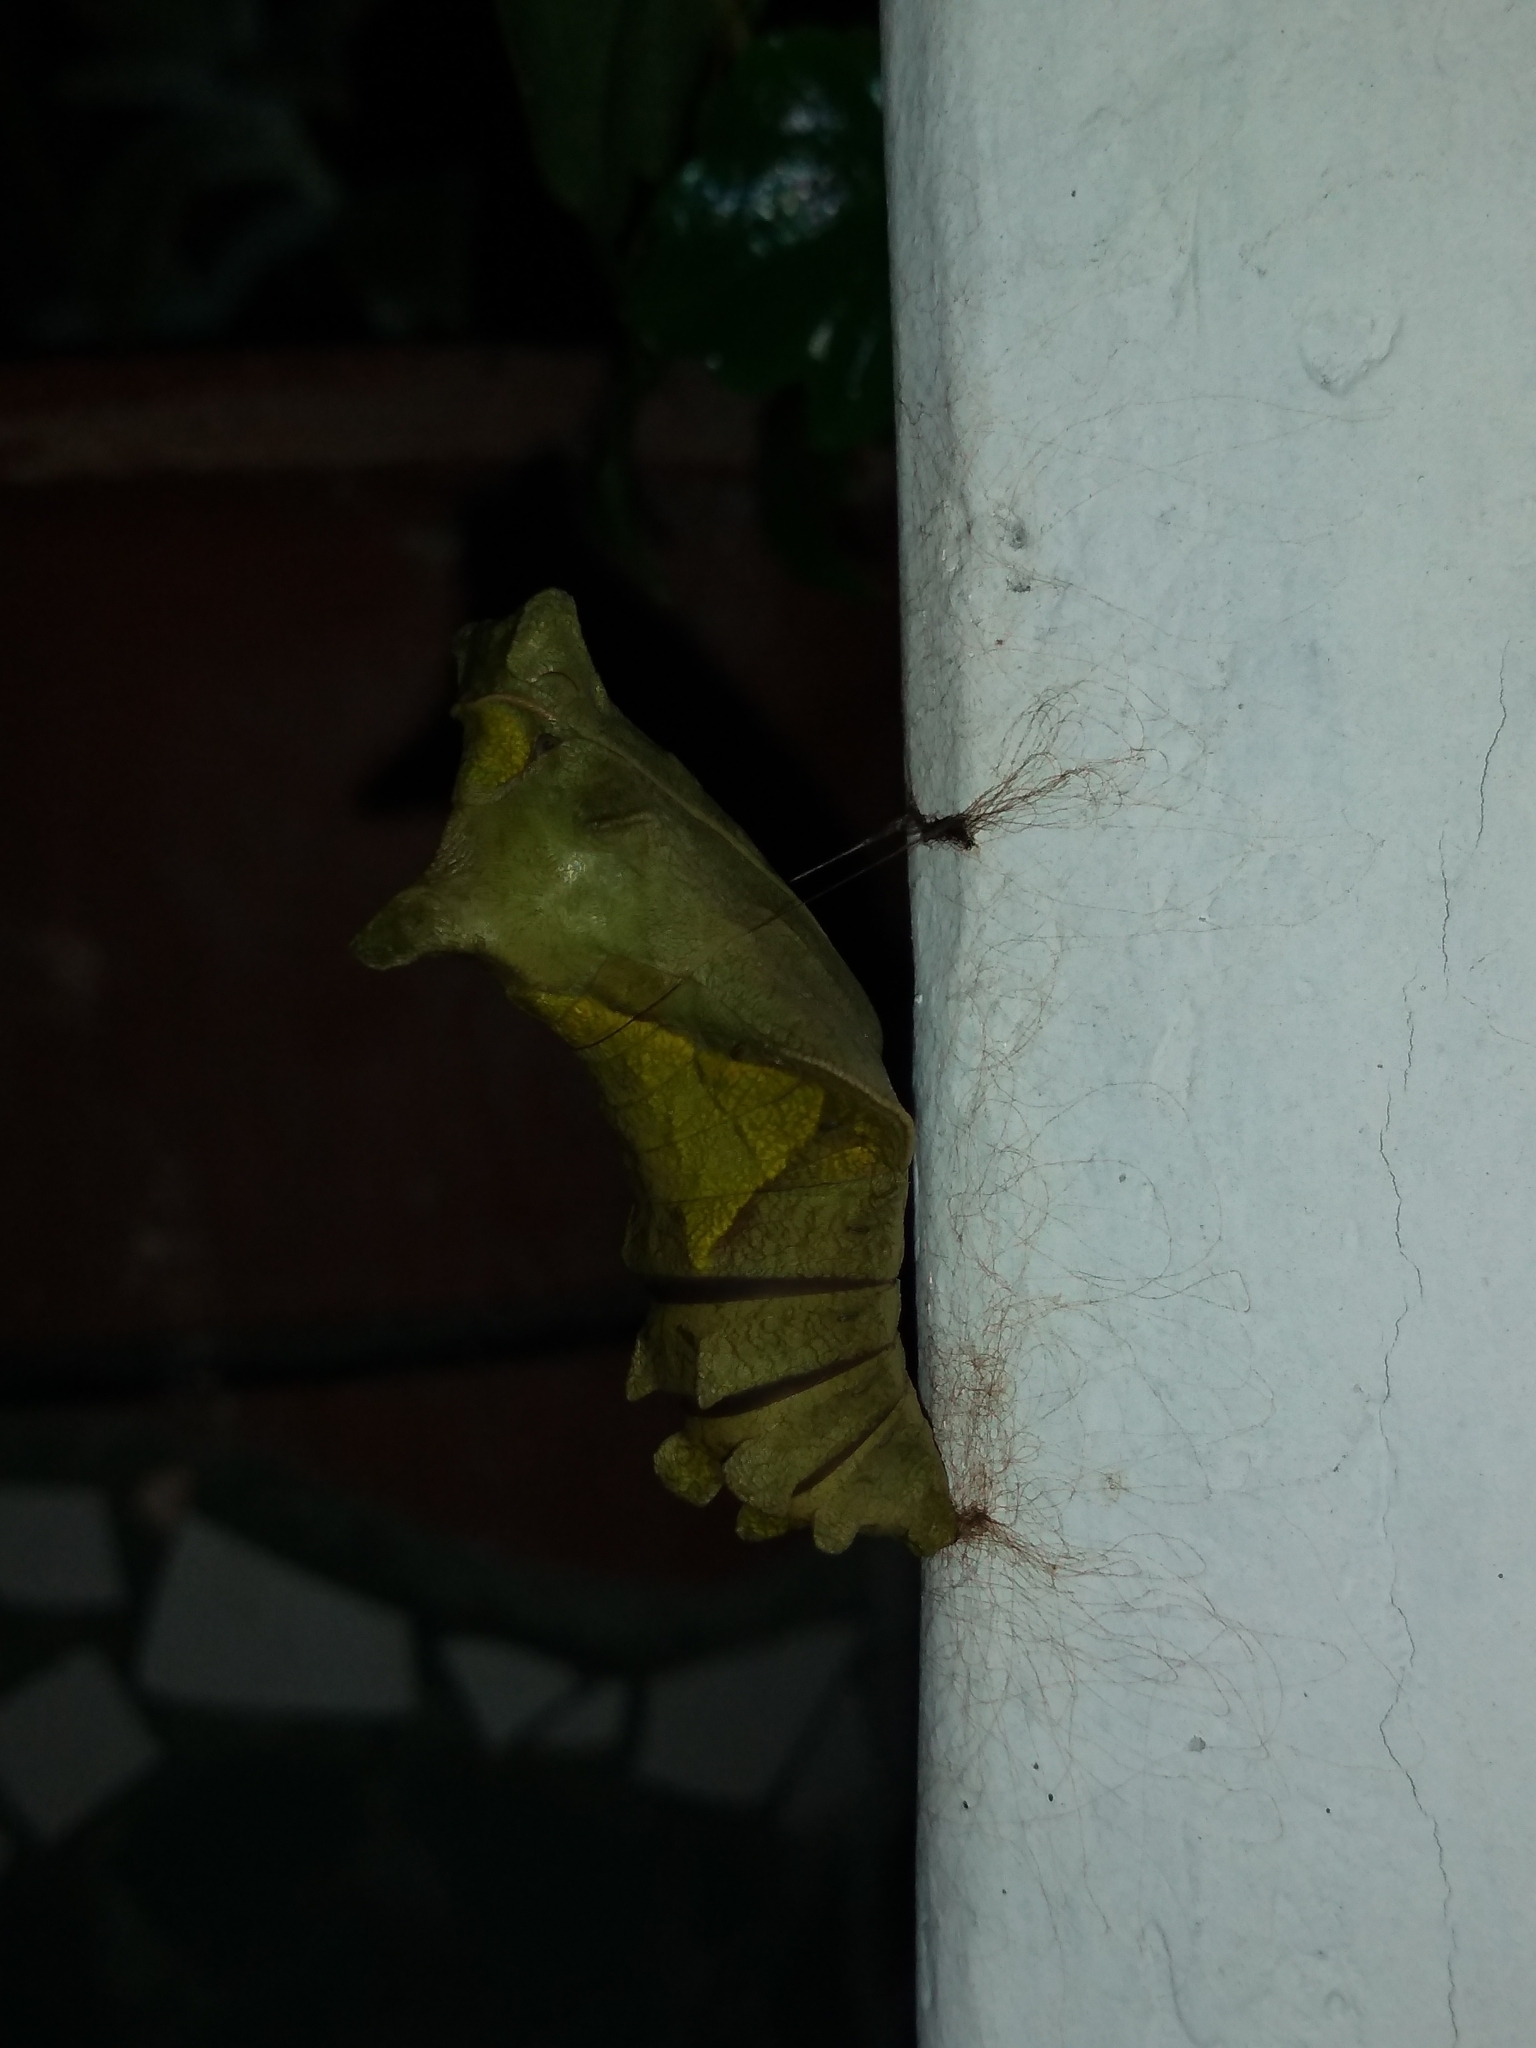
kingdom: Animalia
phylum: Arthropoda
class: Insecta
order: Lepidoptera
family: Papilionidae
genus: Battus
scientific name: Battus polydamas
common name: Polydamas swallowtail
